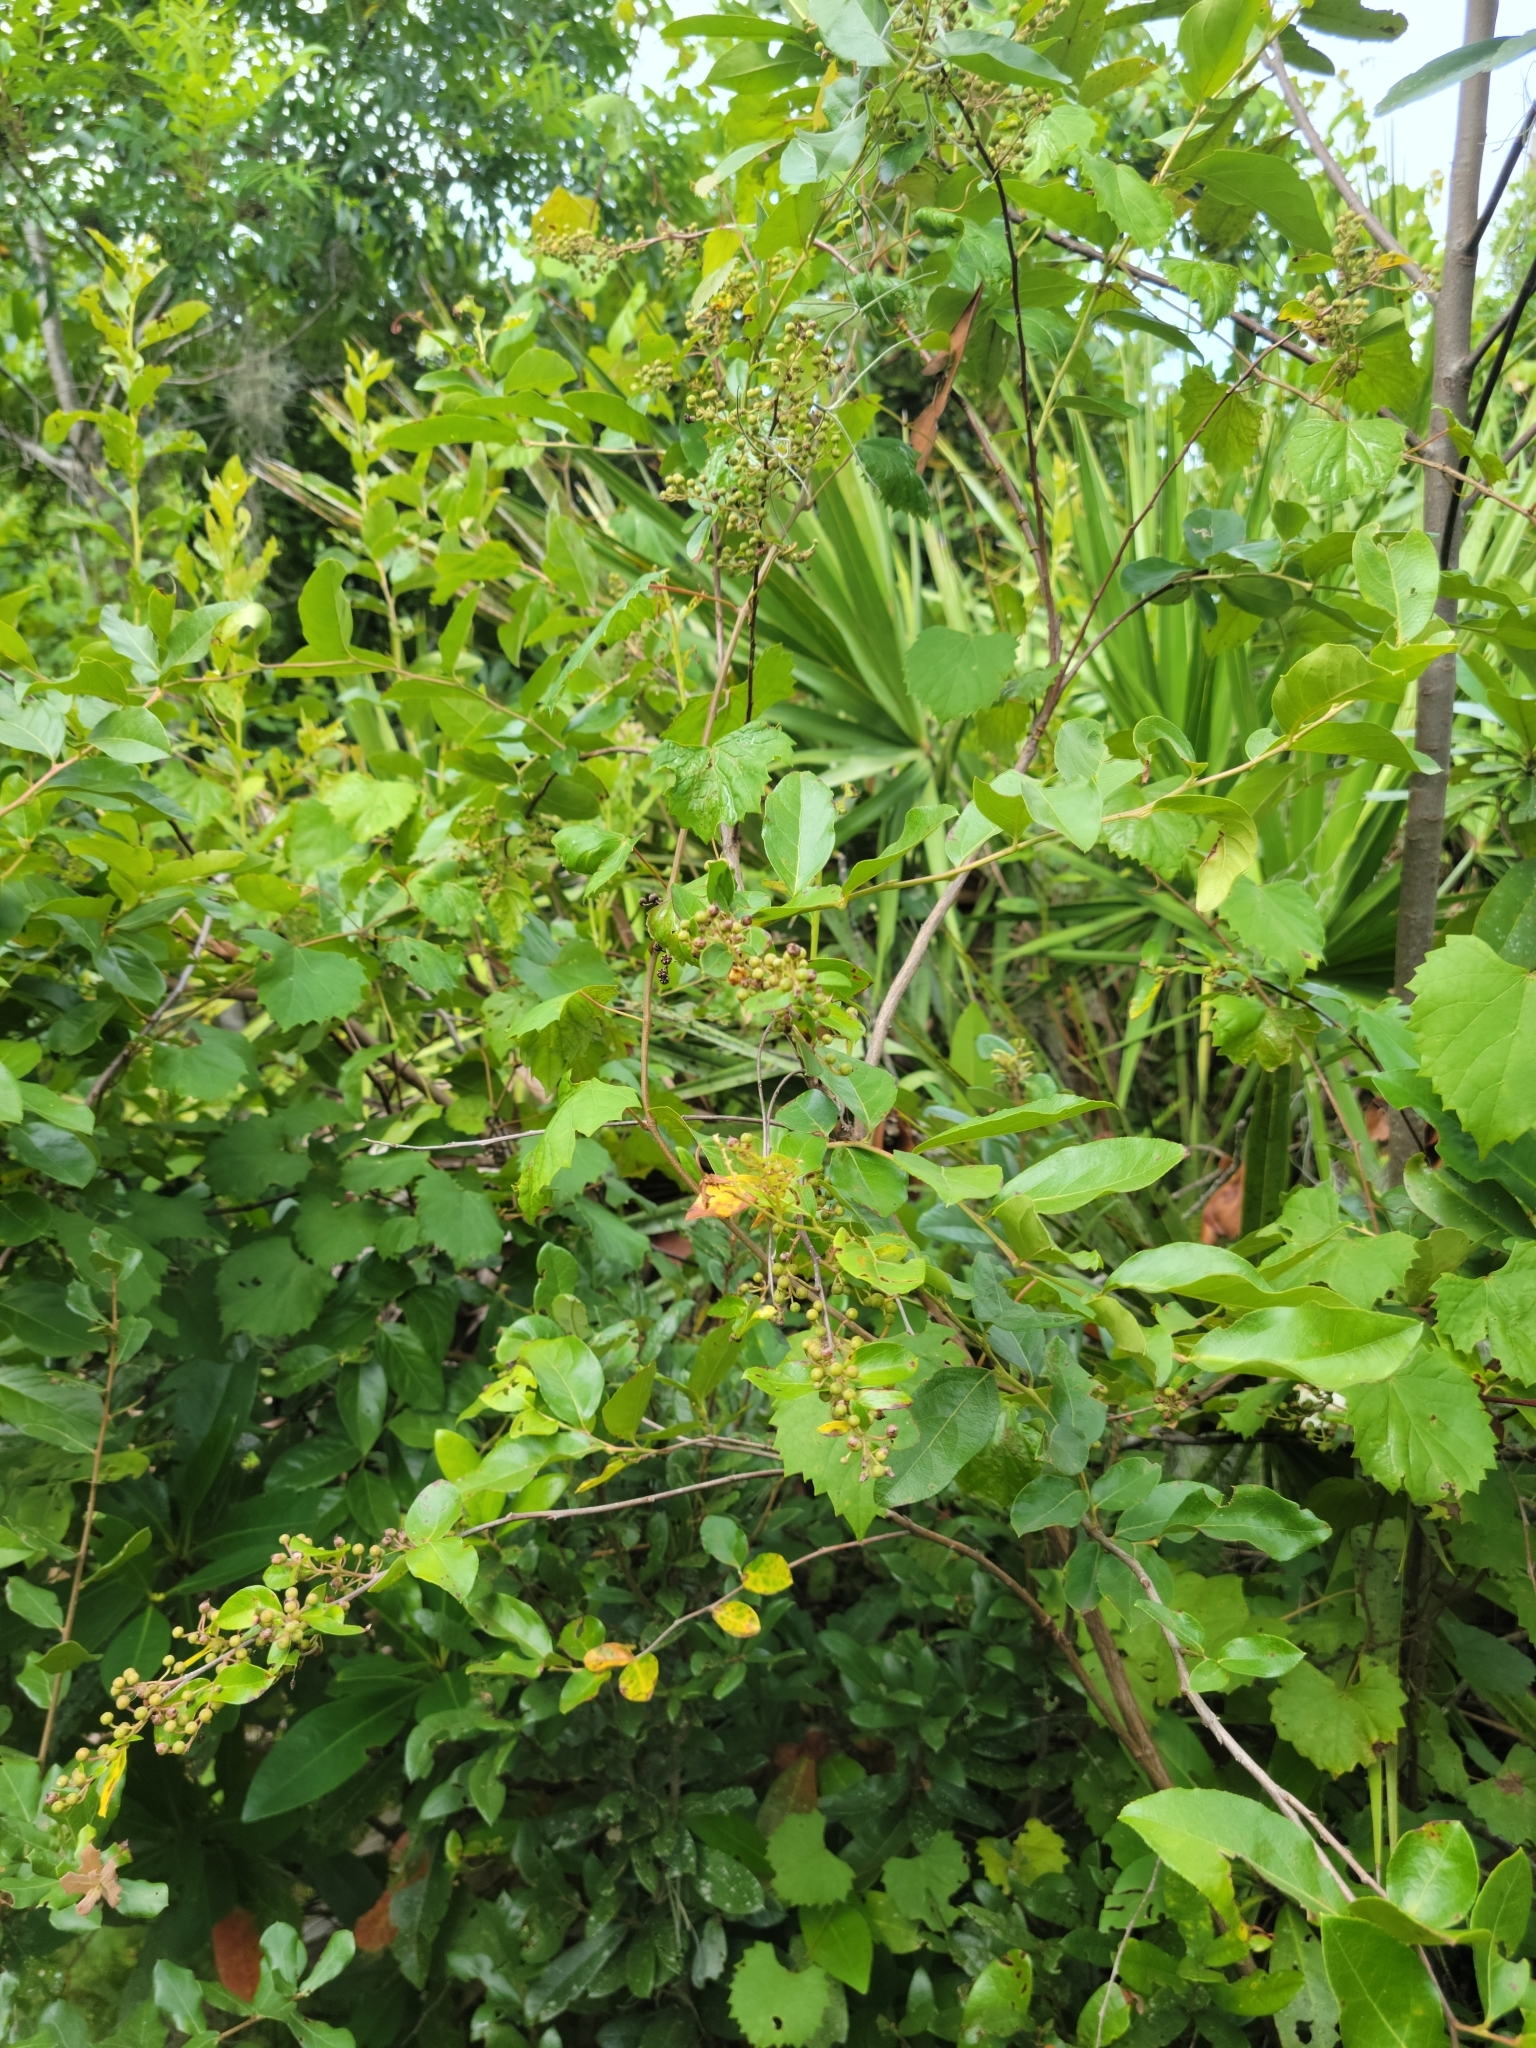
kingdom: Plantae
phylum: Tracheophyta
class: Magnoliopsida
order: Ericales
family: Ericaceae
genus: Lyonia
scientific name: Lyonia ligustrina
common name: Maleberry
